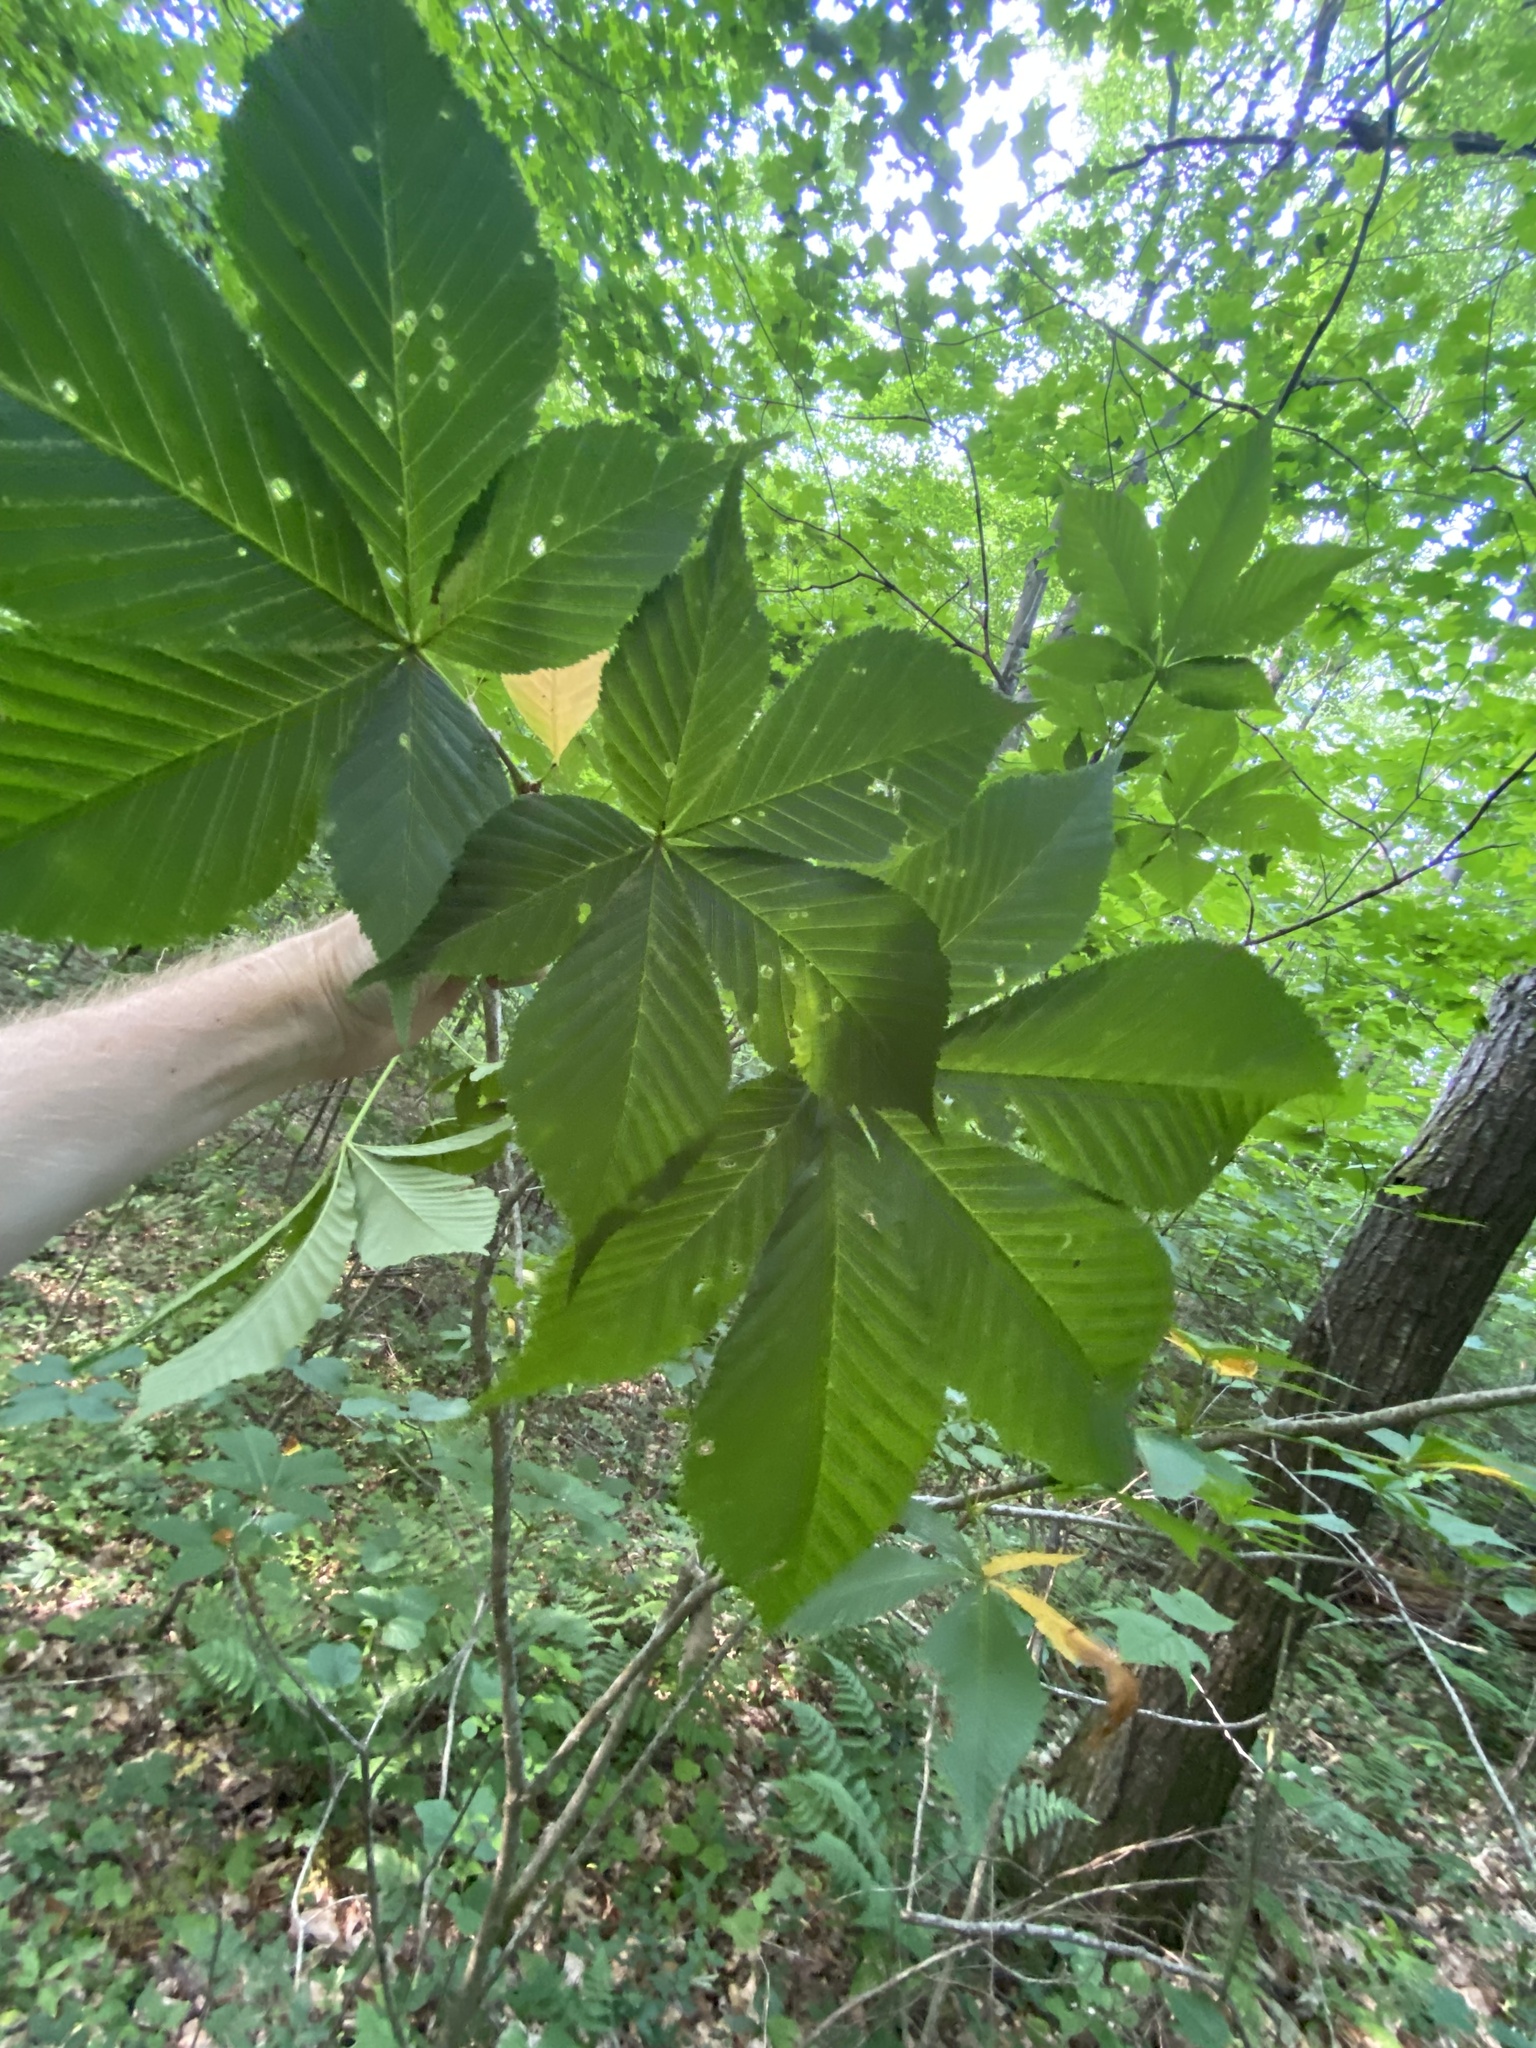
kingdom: Plantae
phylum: Tracheophyta
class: Magnoliopsida
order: Sapindales
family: Sapindaceae
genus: Aesculus
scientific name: Aesculus flava
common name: Yellow buckeye
